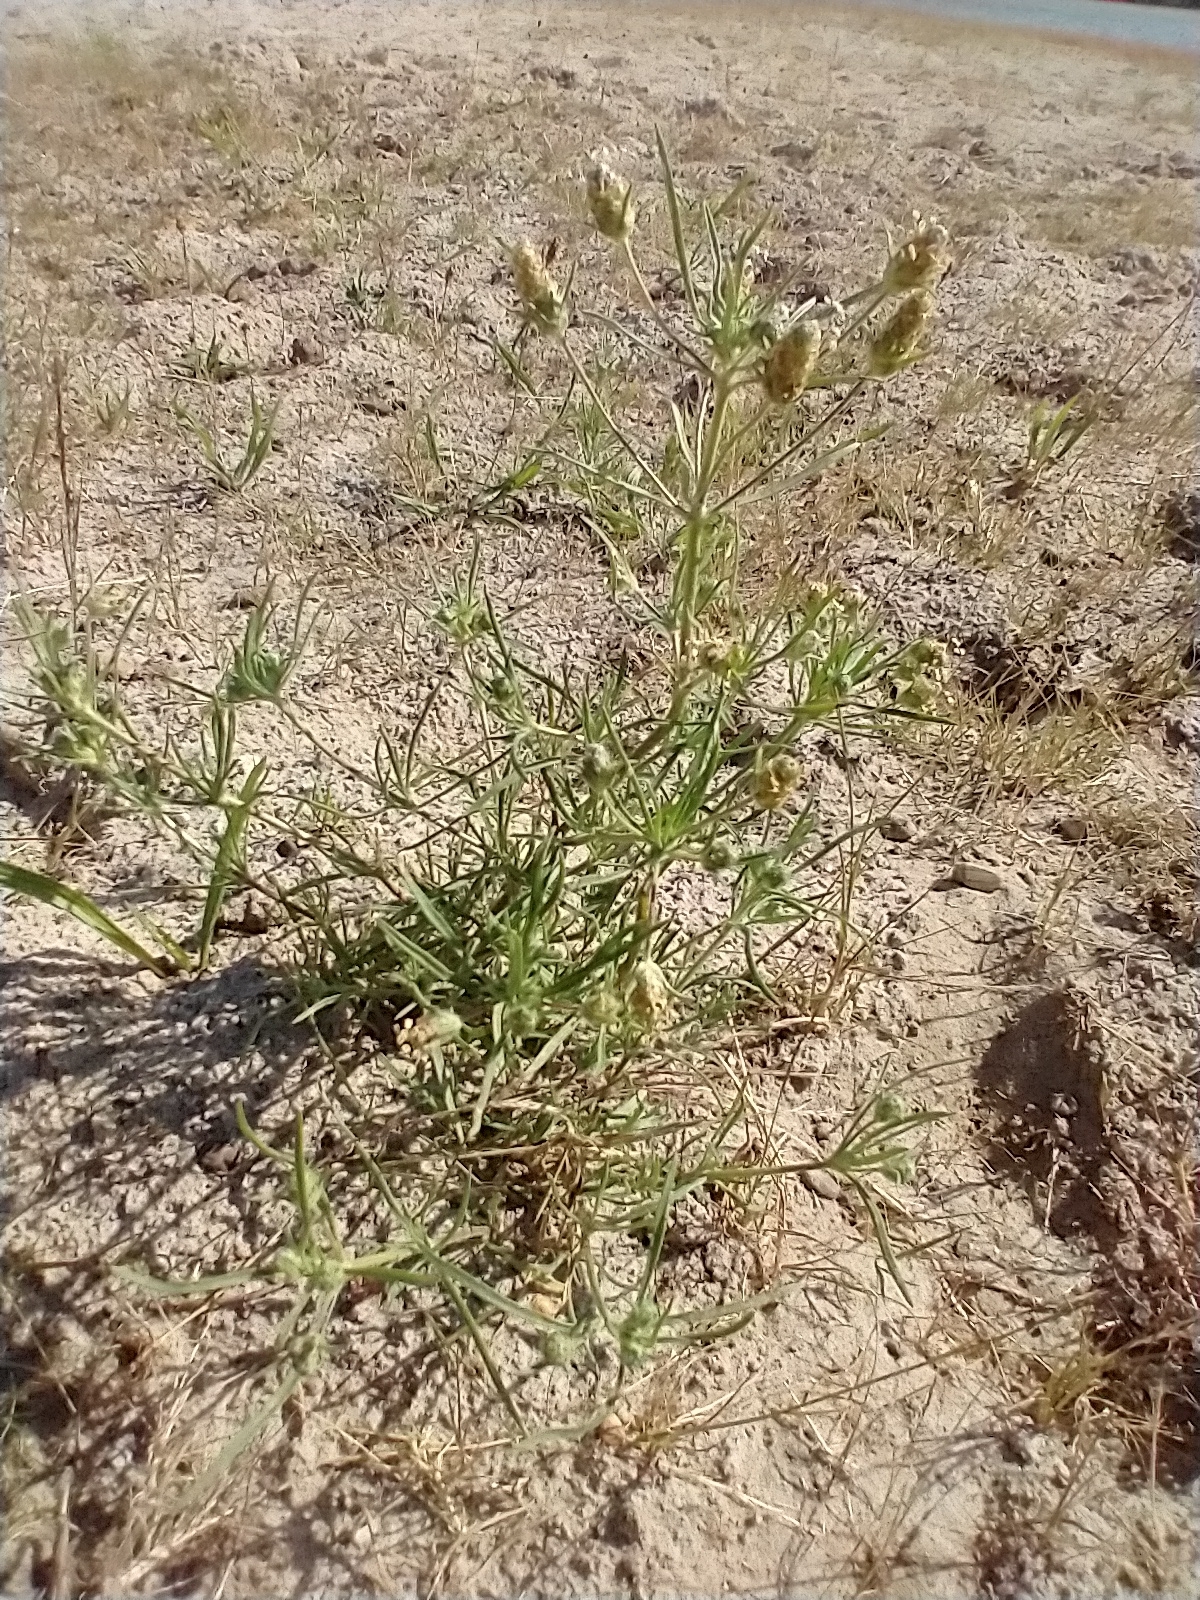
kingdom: Plantae
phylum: Tracheophyta
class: Magnoliopsida
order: Lamiales
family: Plantaginaceae
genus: Plantago
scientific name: Plantago arenaria
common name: Branched plantain
